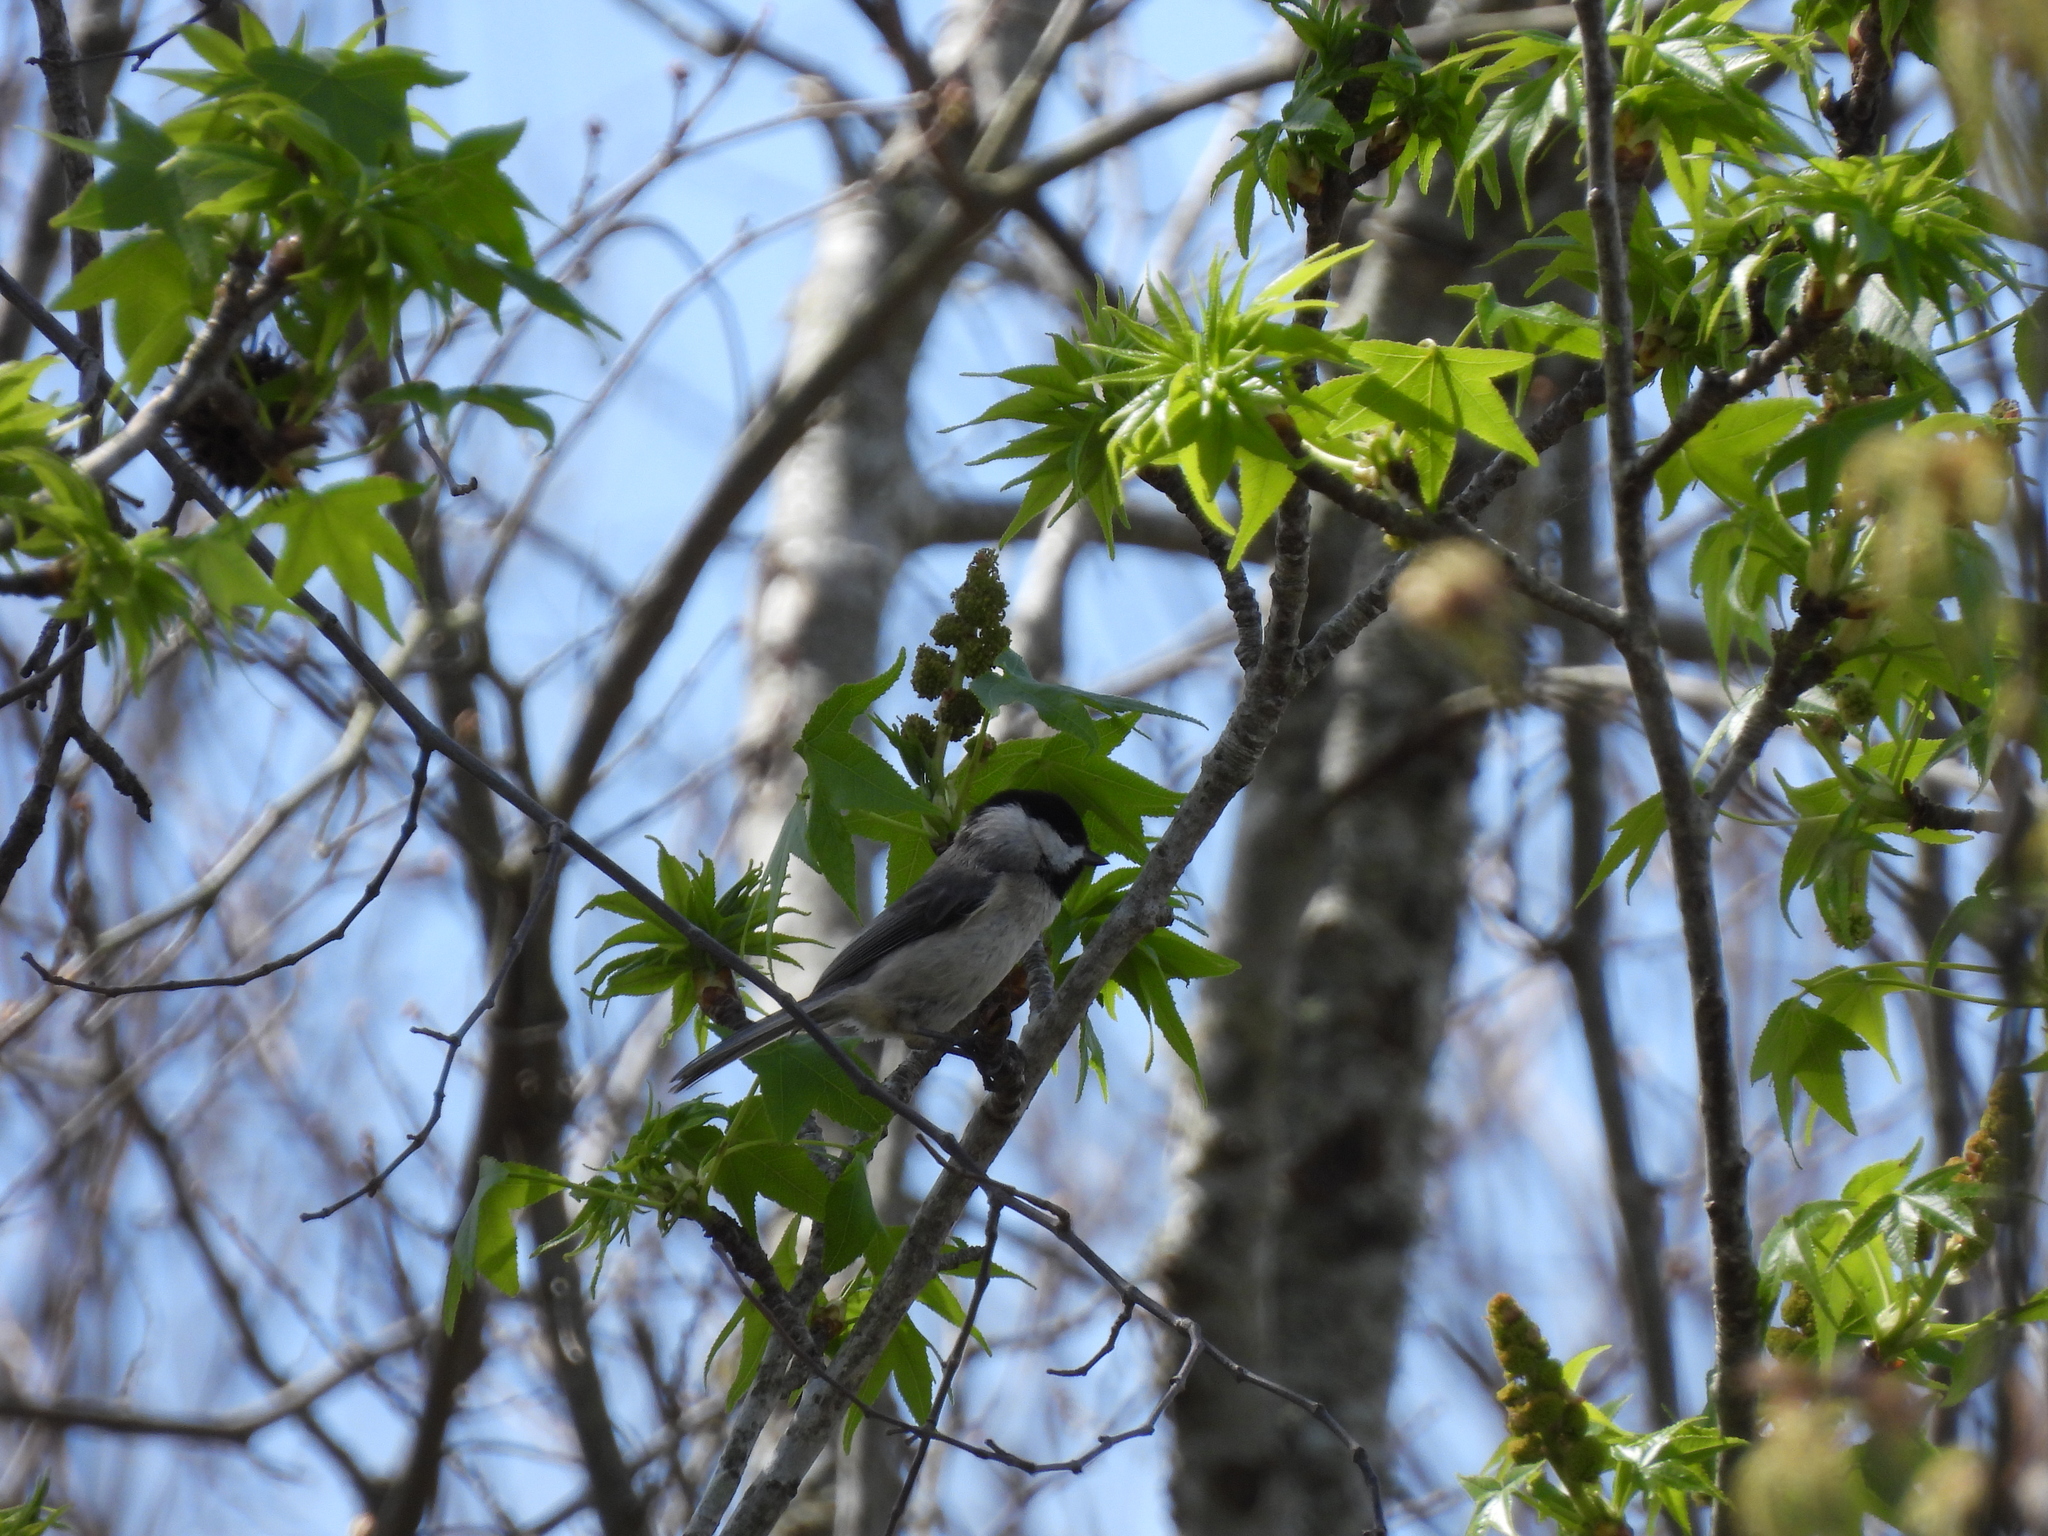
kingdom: Animalia
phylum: Chordata
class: Aves
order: Passeriformes
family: Paridae
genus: Poecile
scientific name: Poecile carolinensis
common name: Carolina chickadee
